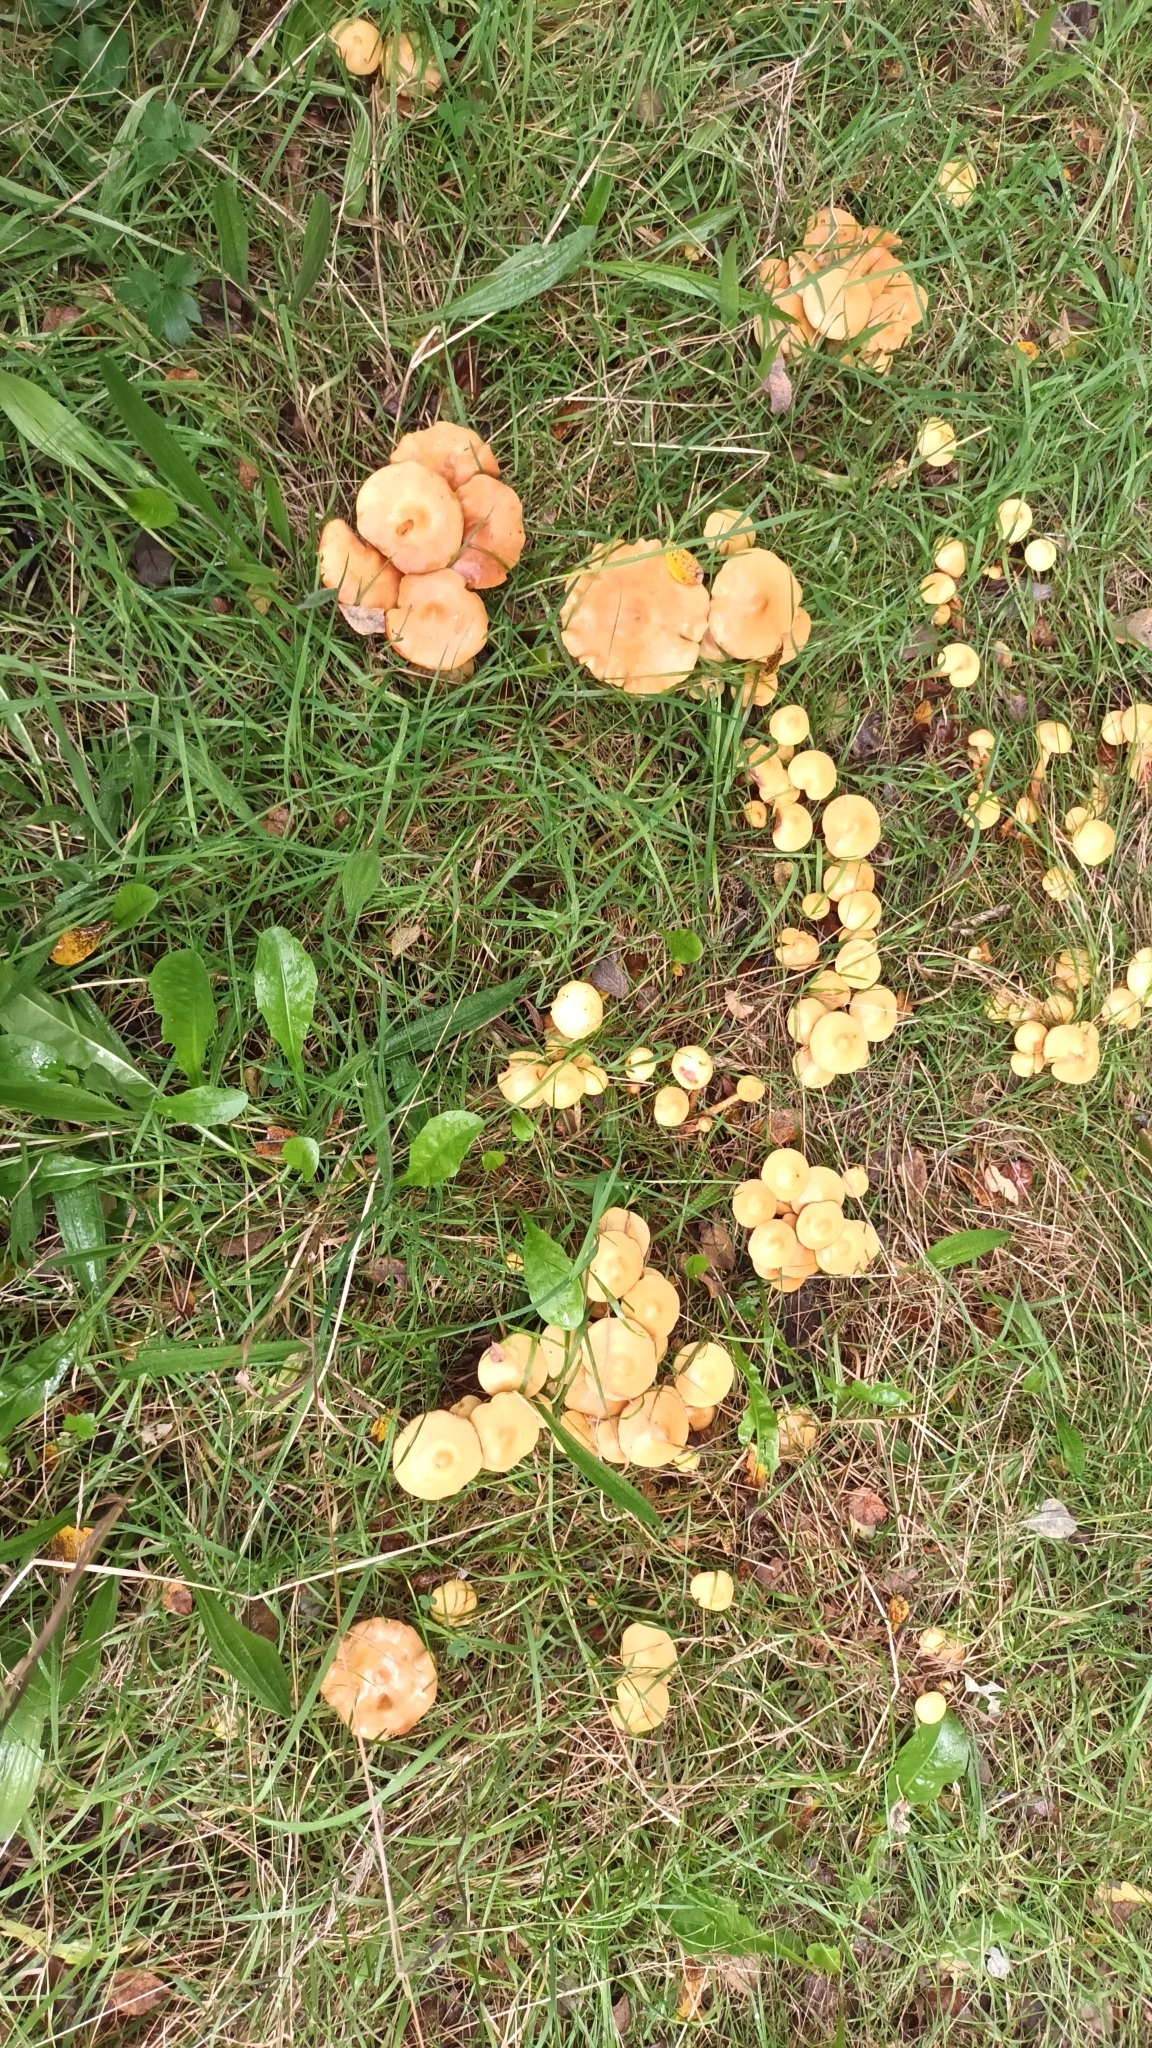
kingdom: Fungi
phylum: Basidiomycota
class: Agaricomycetes
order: Agaricales
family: Marasmiaceae
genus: Marasmius
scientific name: Marasmius oreades
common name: Fairy ring champignon
